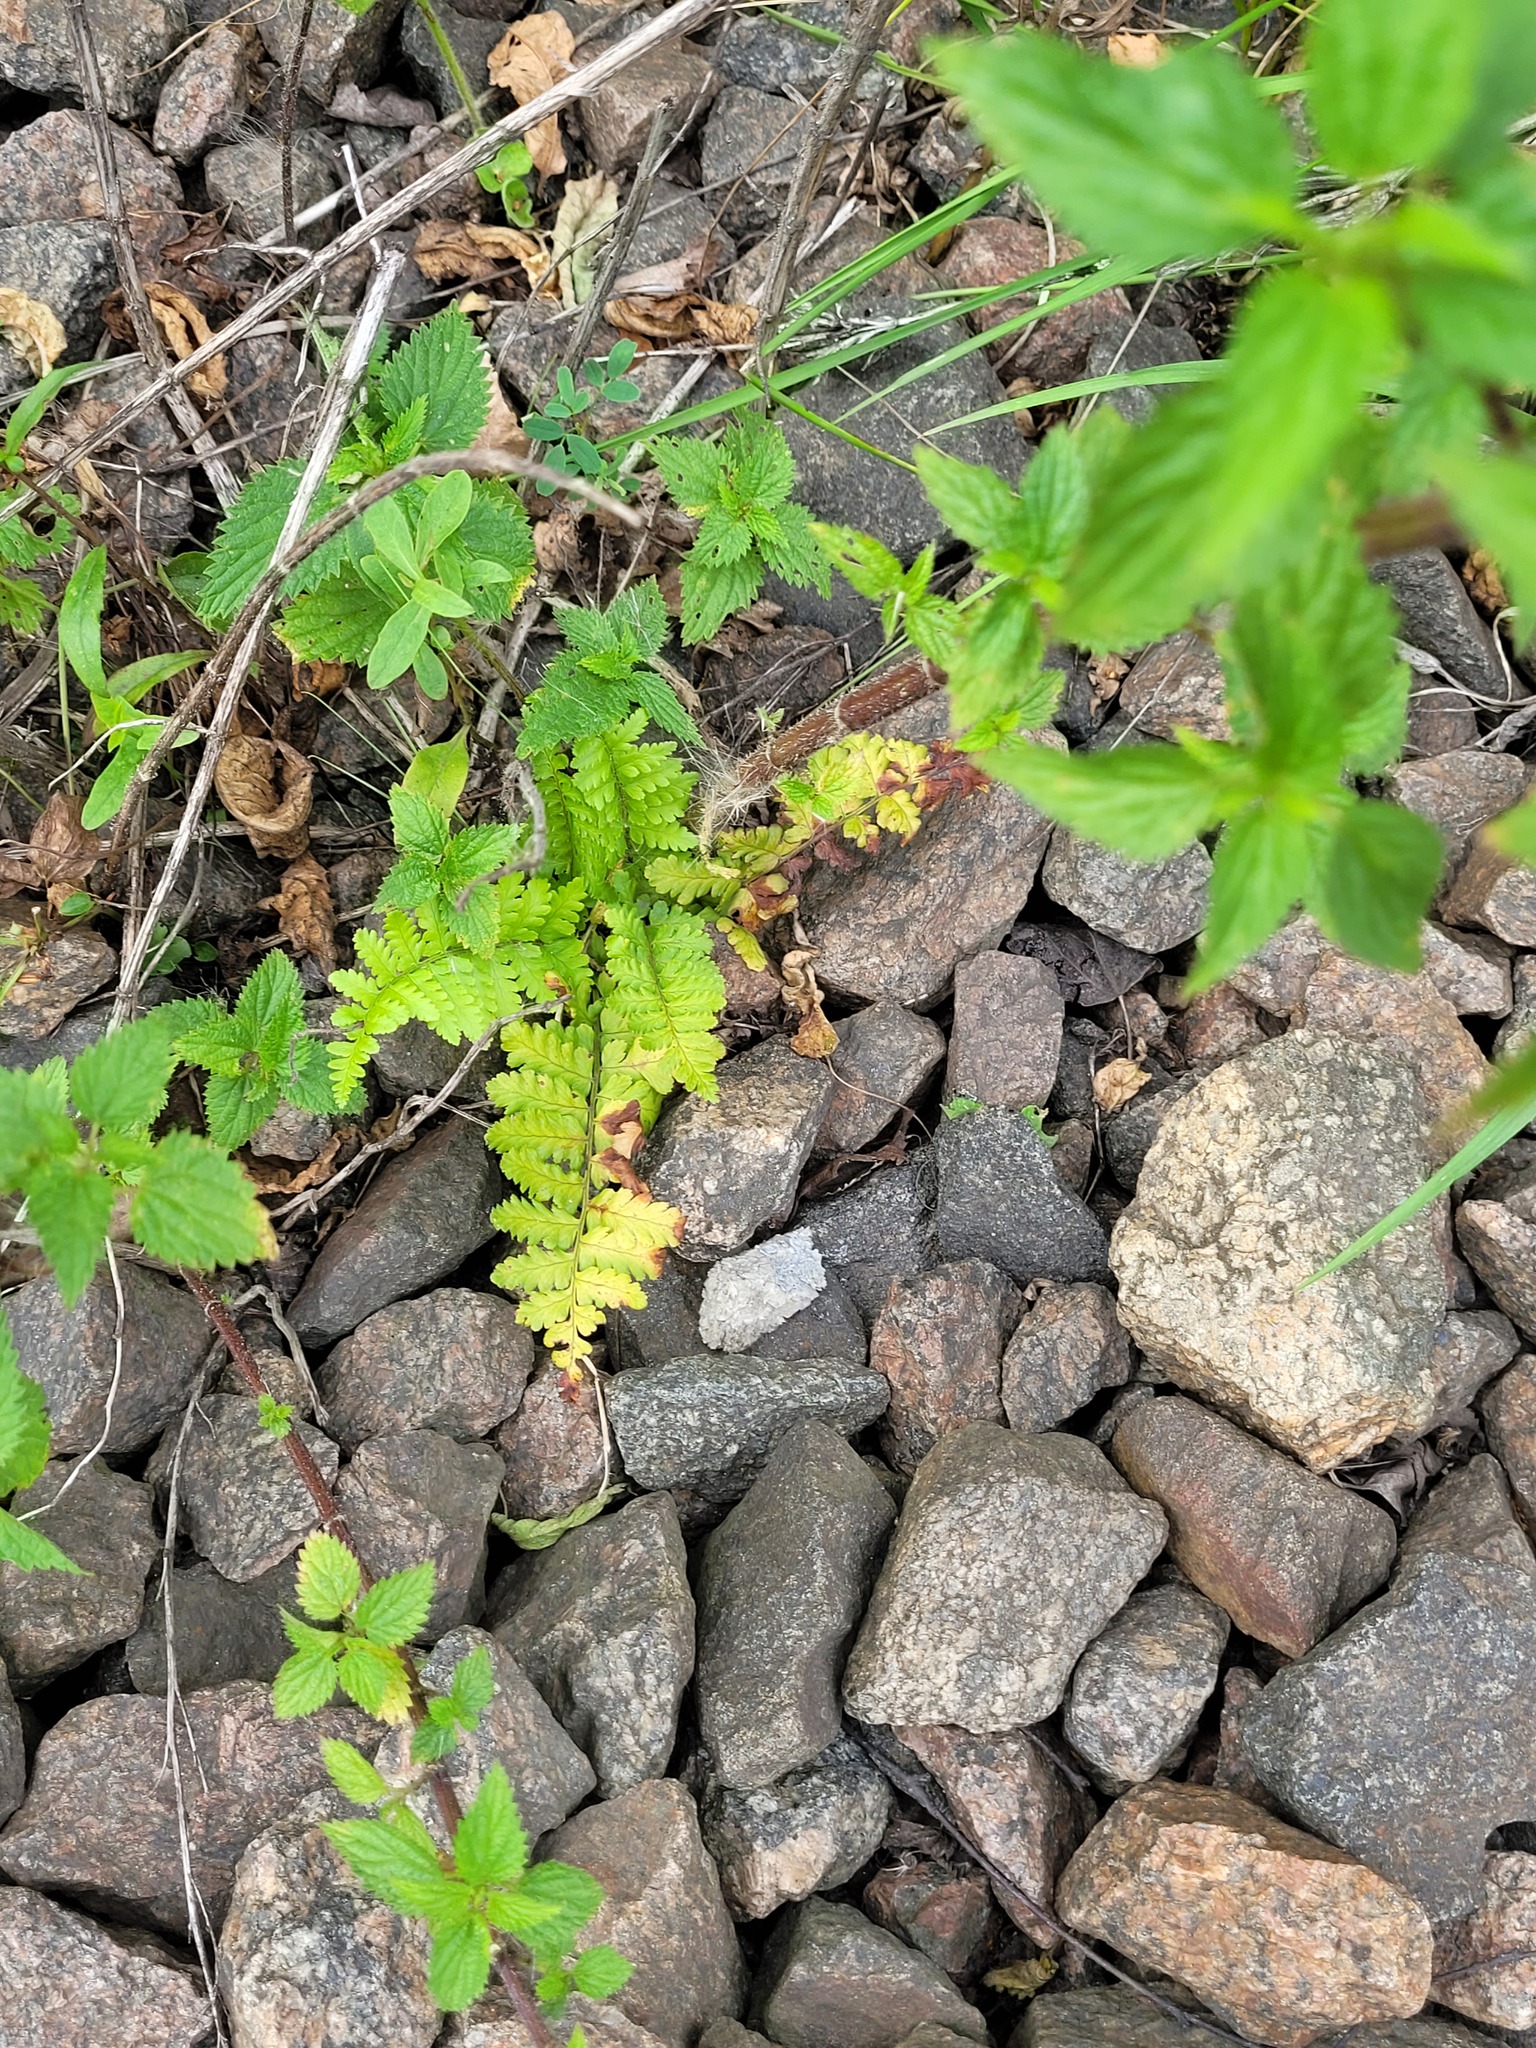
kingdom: Plantae
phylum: Tracheophyta
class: Polypodiopsida
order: Polypodiales
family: Dryopteridaceae
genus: Dryopteris
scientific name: Dryopteris filix-mas
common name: Male fern
